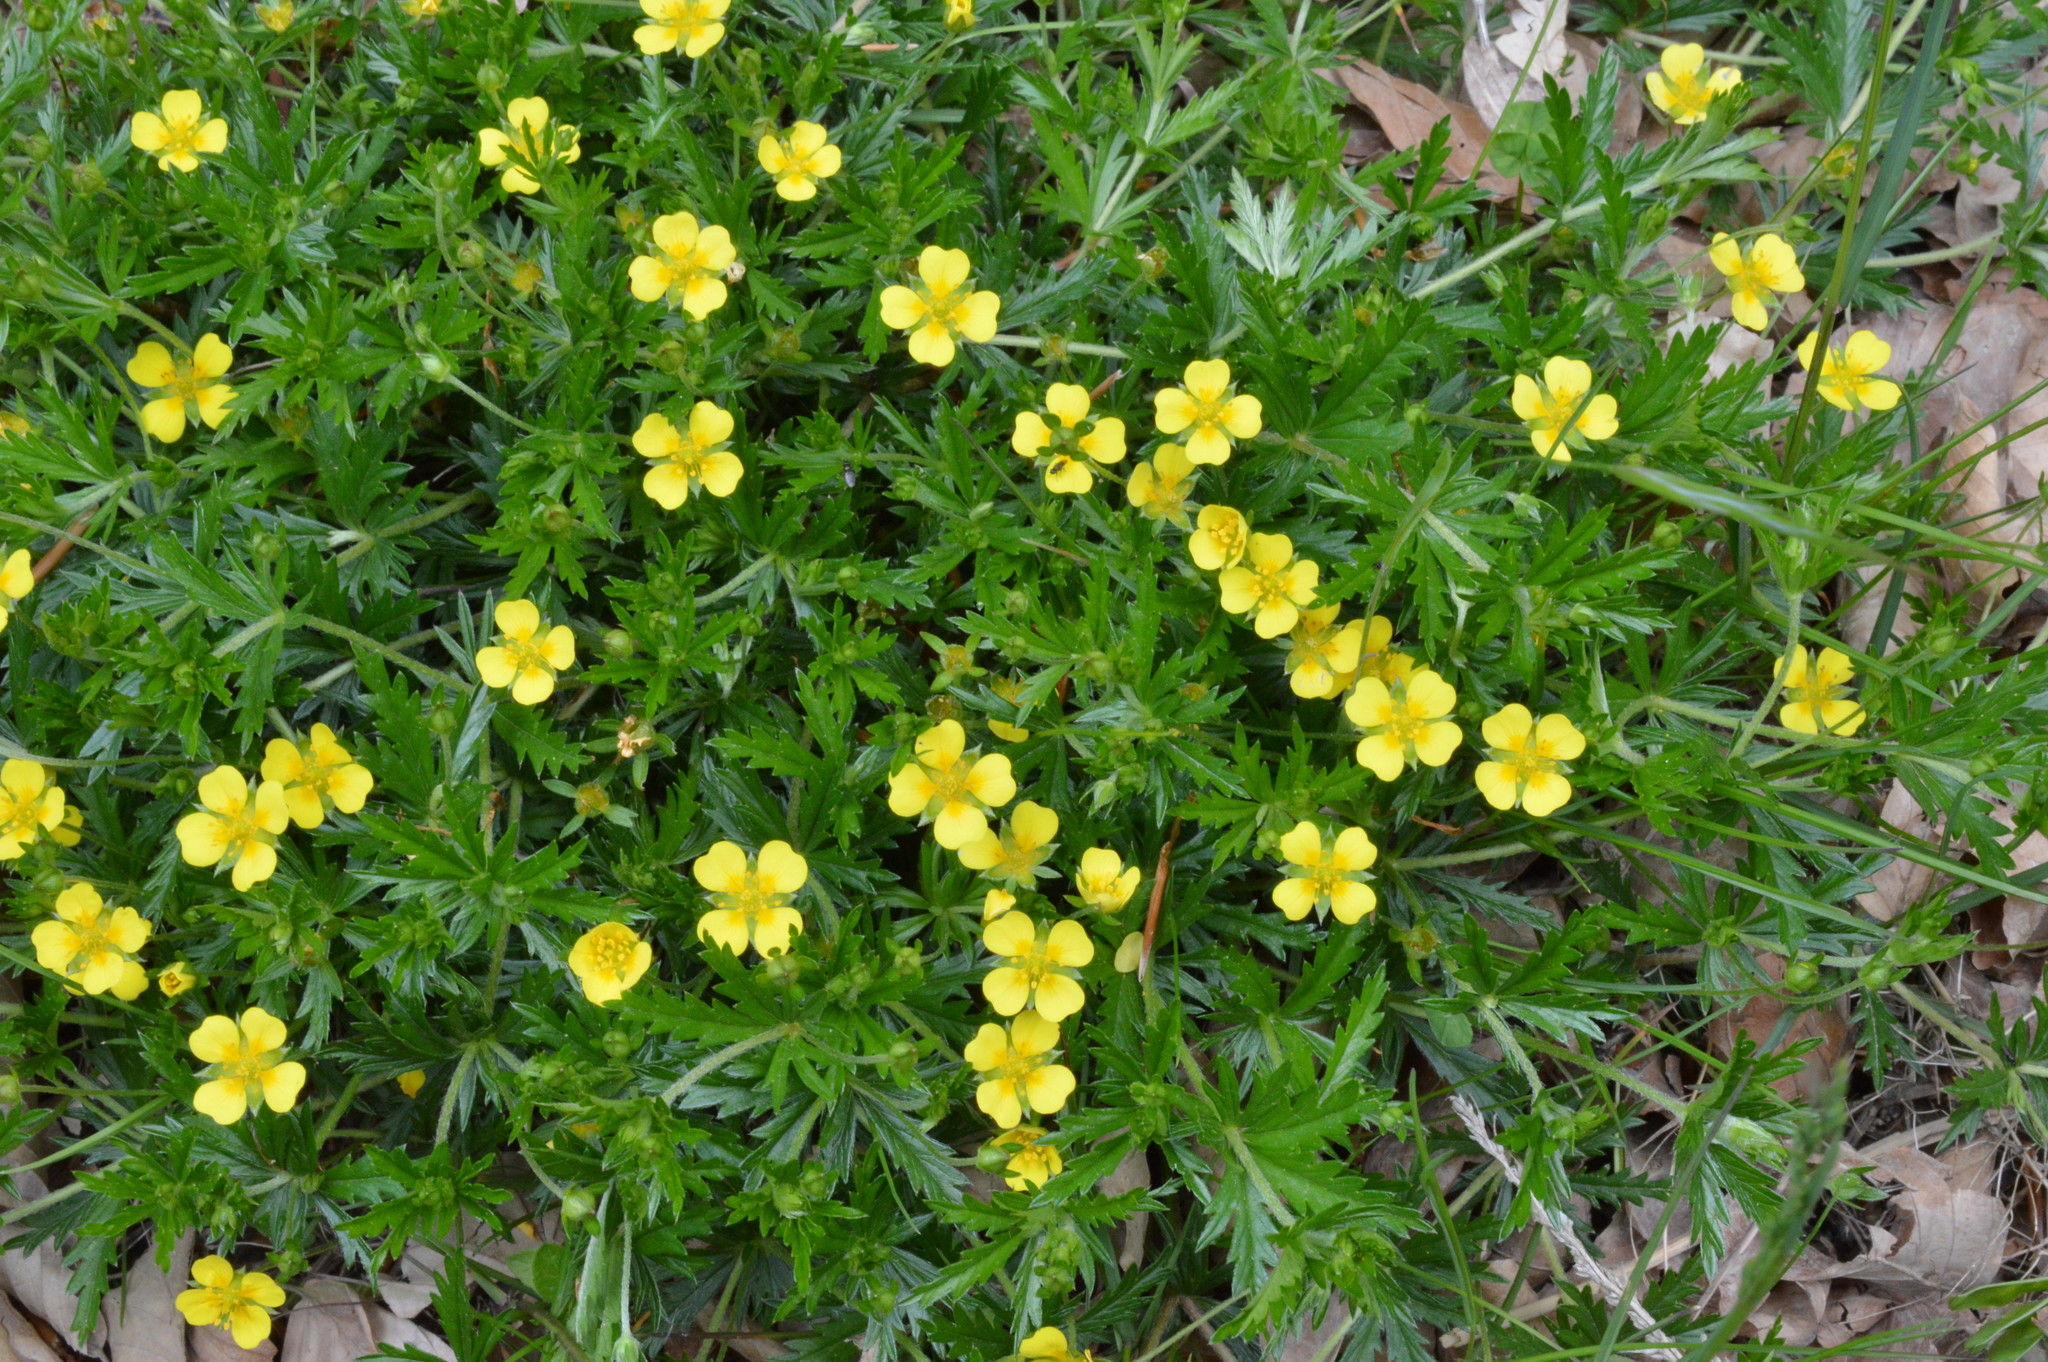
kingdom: Plantae
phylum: Tracheophyta
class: Magnoliopsida
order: Rosales
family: Rosaceae
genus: Potentilla
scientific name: Potentilla erecta
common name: Tormentil
